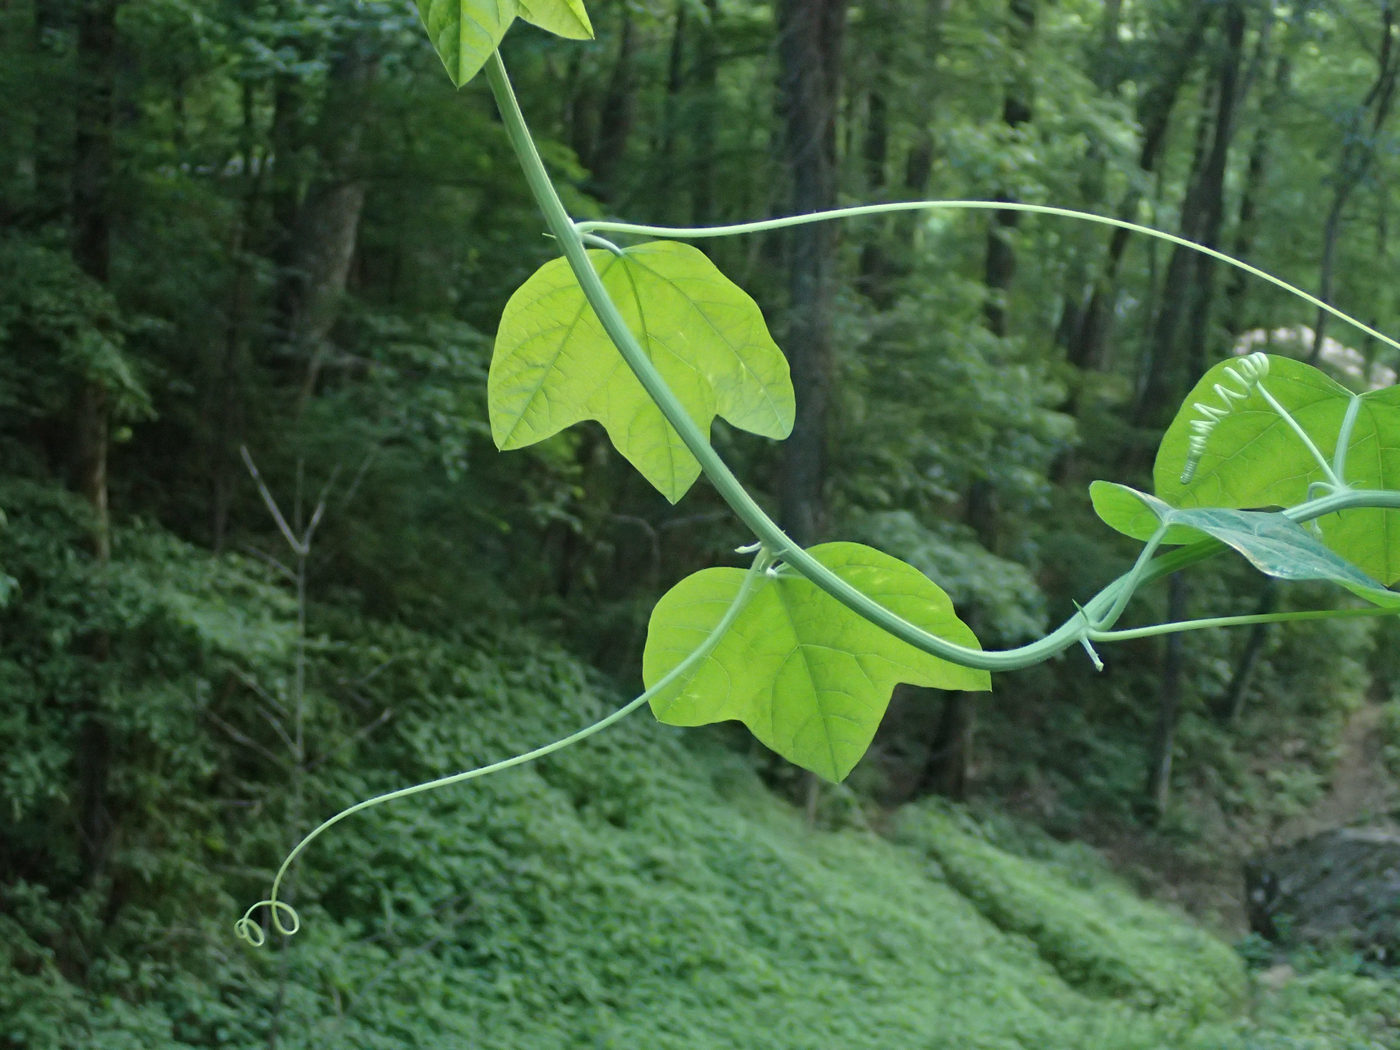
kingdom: Plantae
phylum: Tracheophyta
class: Magnoliopsida
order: Malpighiales
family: Passifloraceae
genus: Passiflora
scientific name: Passiflora lutea
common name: Yellow passionflower
